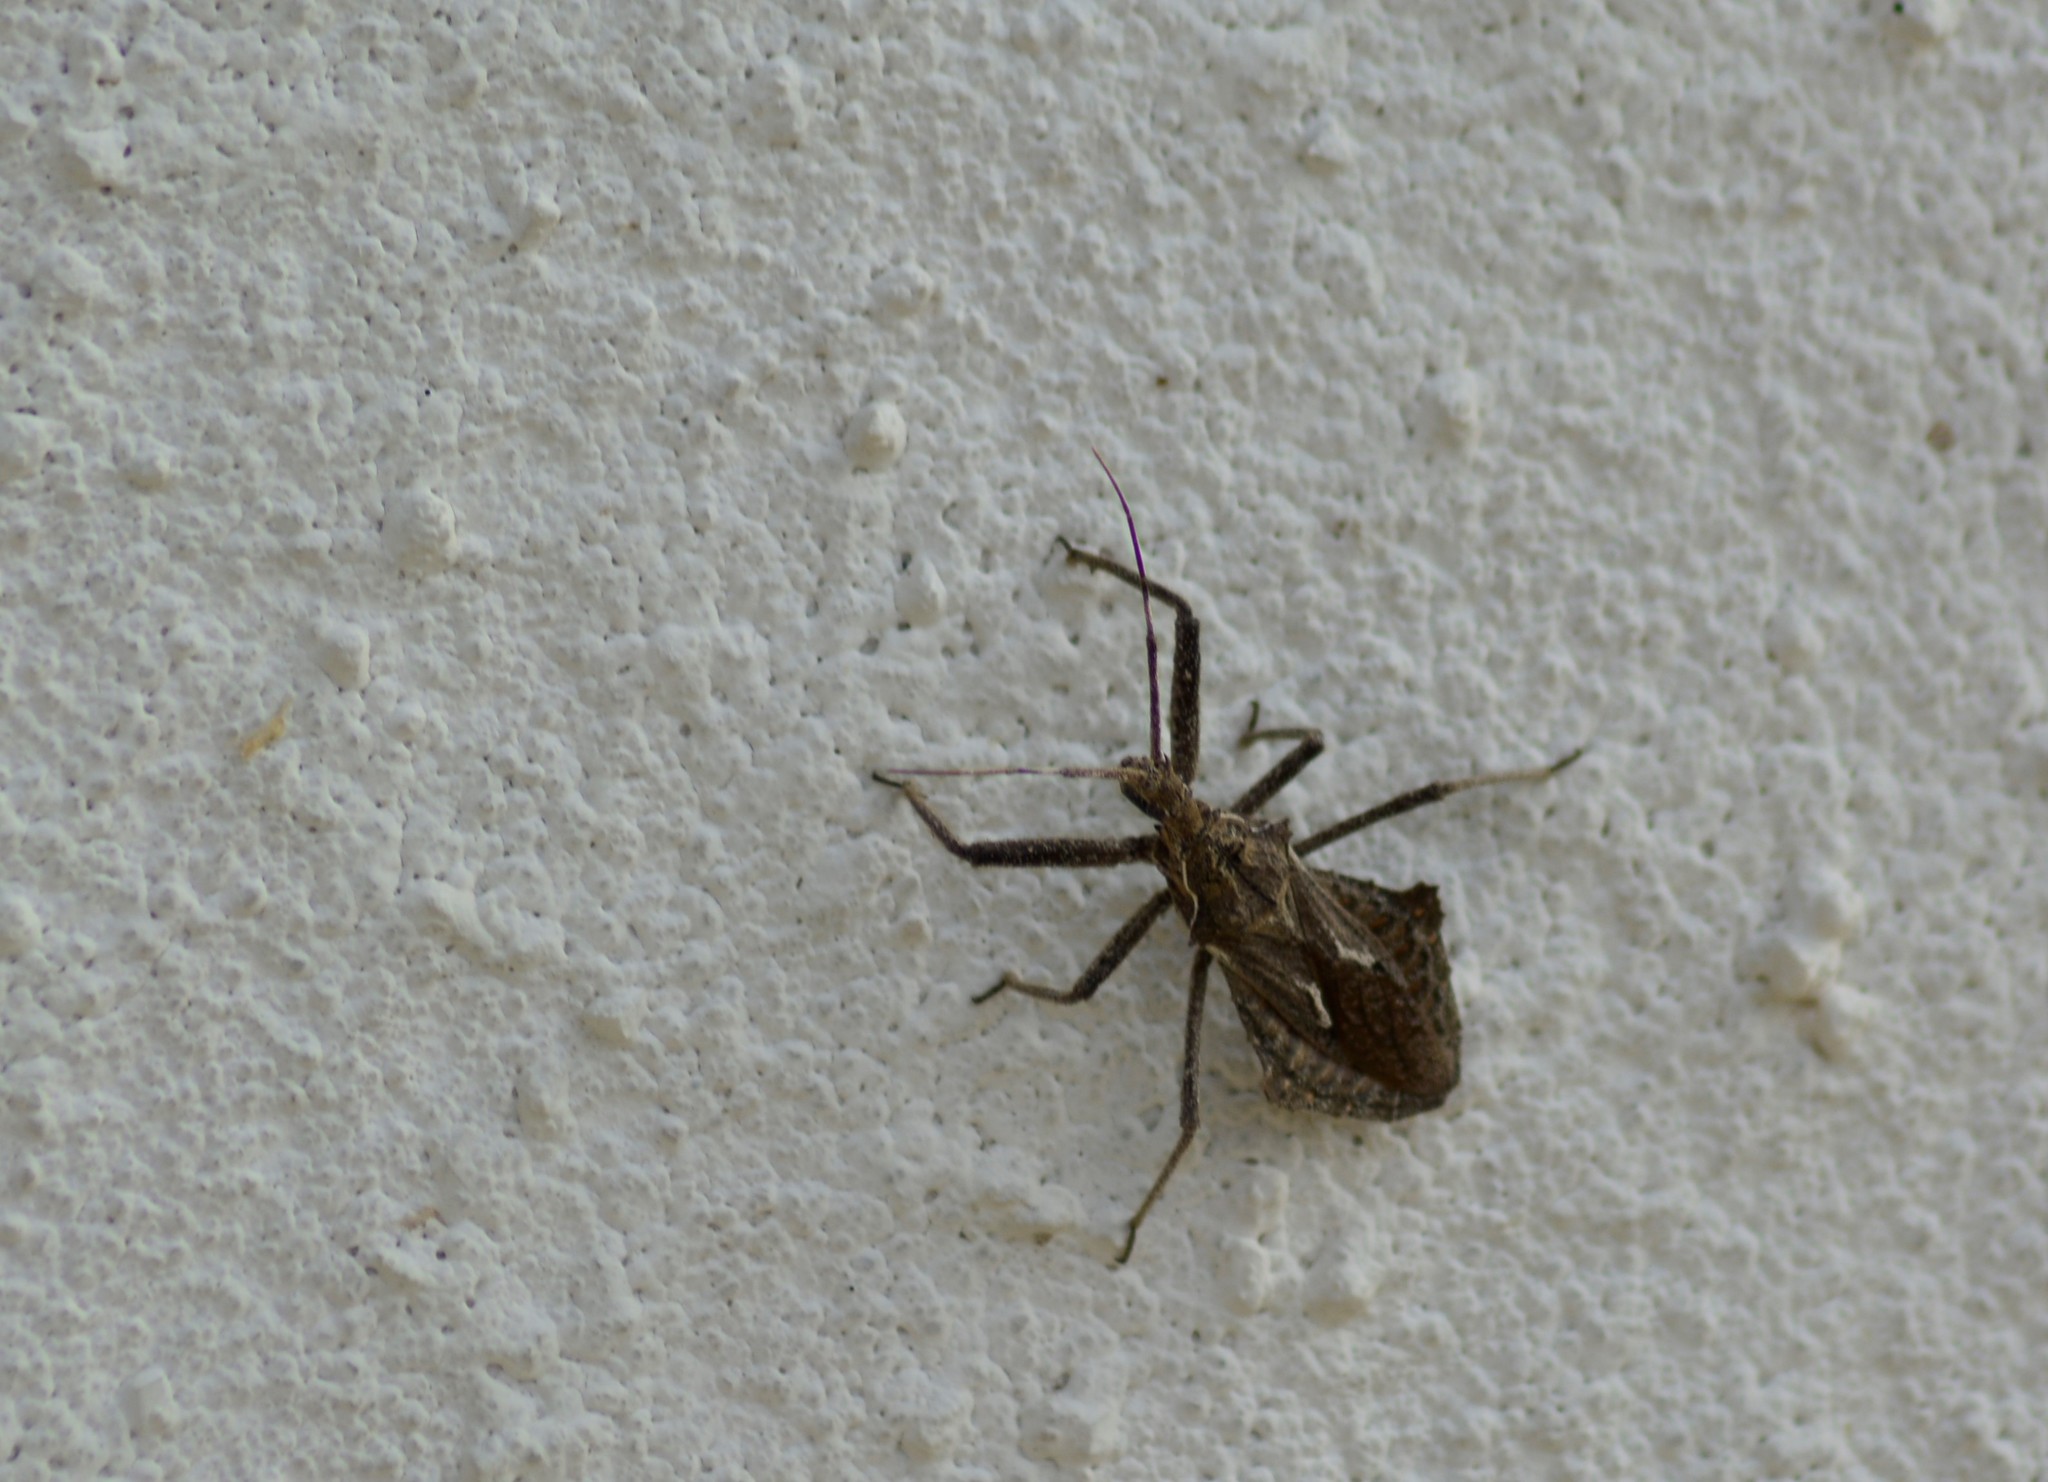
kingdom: Animalia
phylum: Arthropoda
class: Insecta
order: Hemiptera
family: Reduviidae
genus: Harpactor
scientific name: Harpactor tuberculosus
